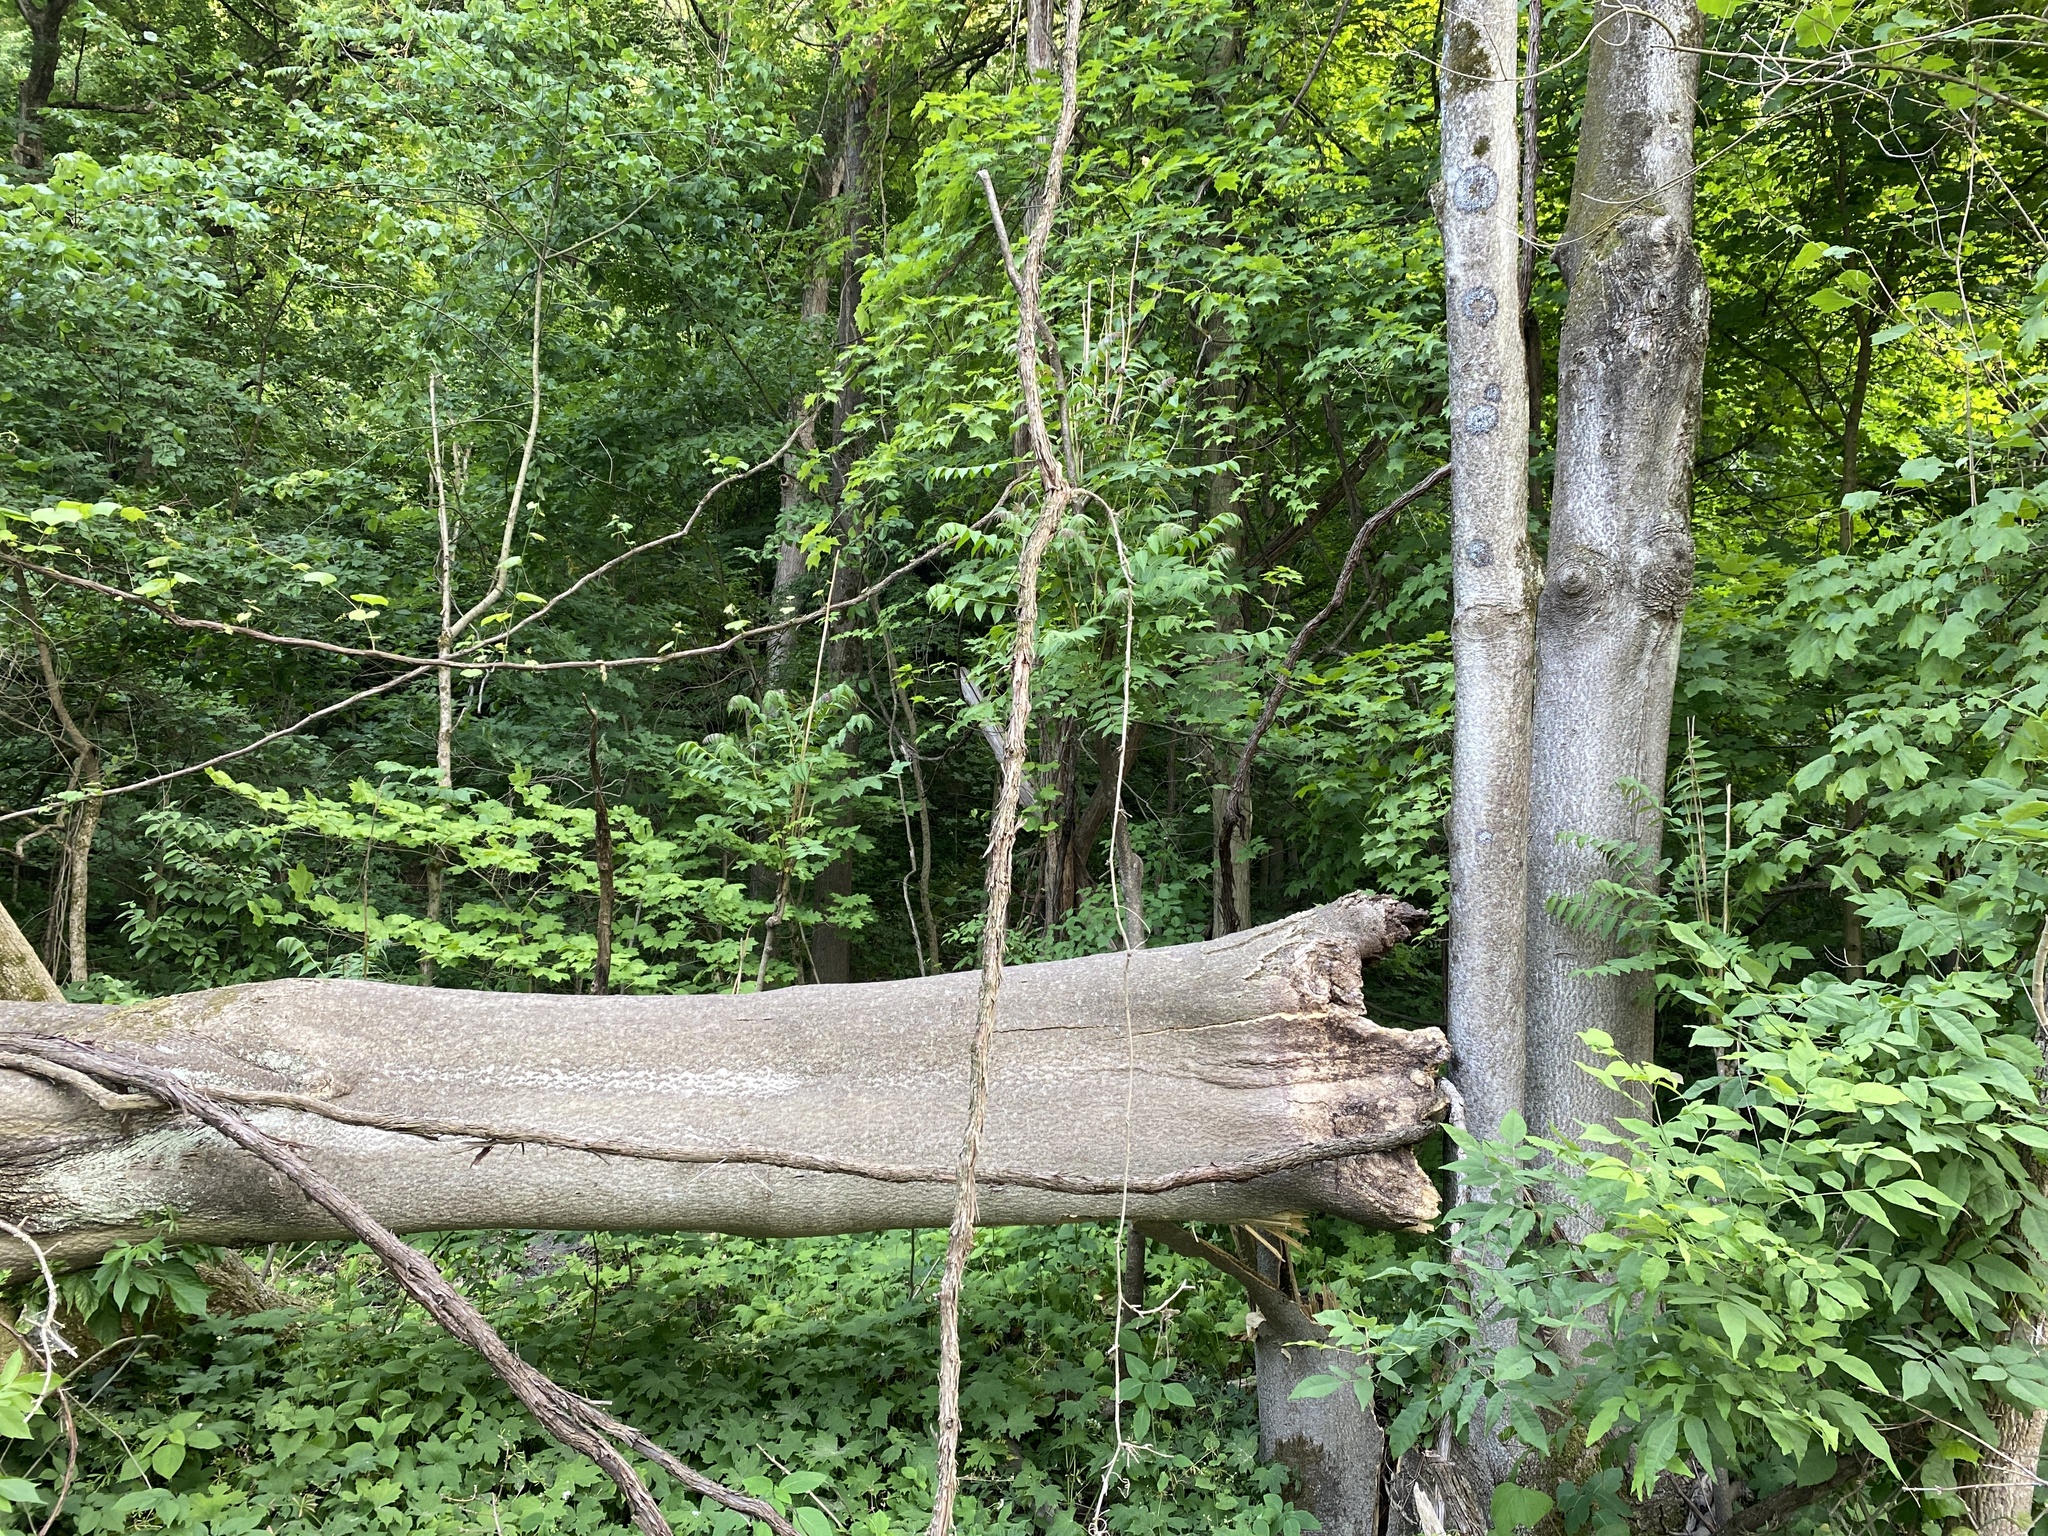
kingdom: Plantae
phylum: Tracheophyta
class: Magnoliopsida
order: Sapindales
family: Simaroubaceae
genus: Ailanthus
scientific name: Ailanthus altissima
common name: Tree-of-heaven
